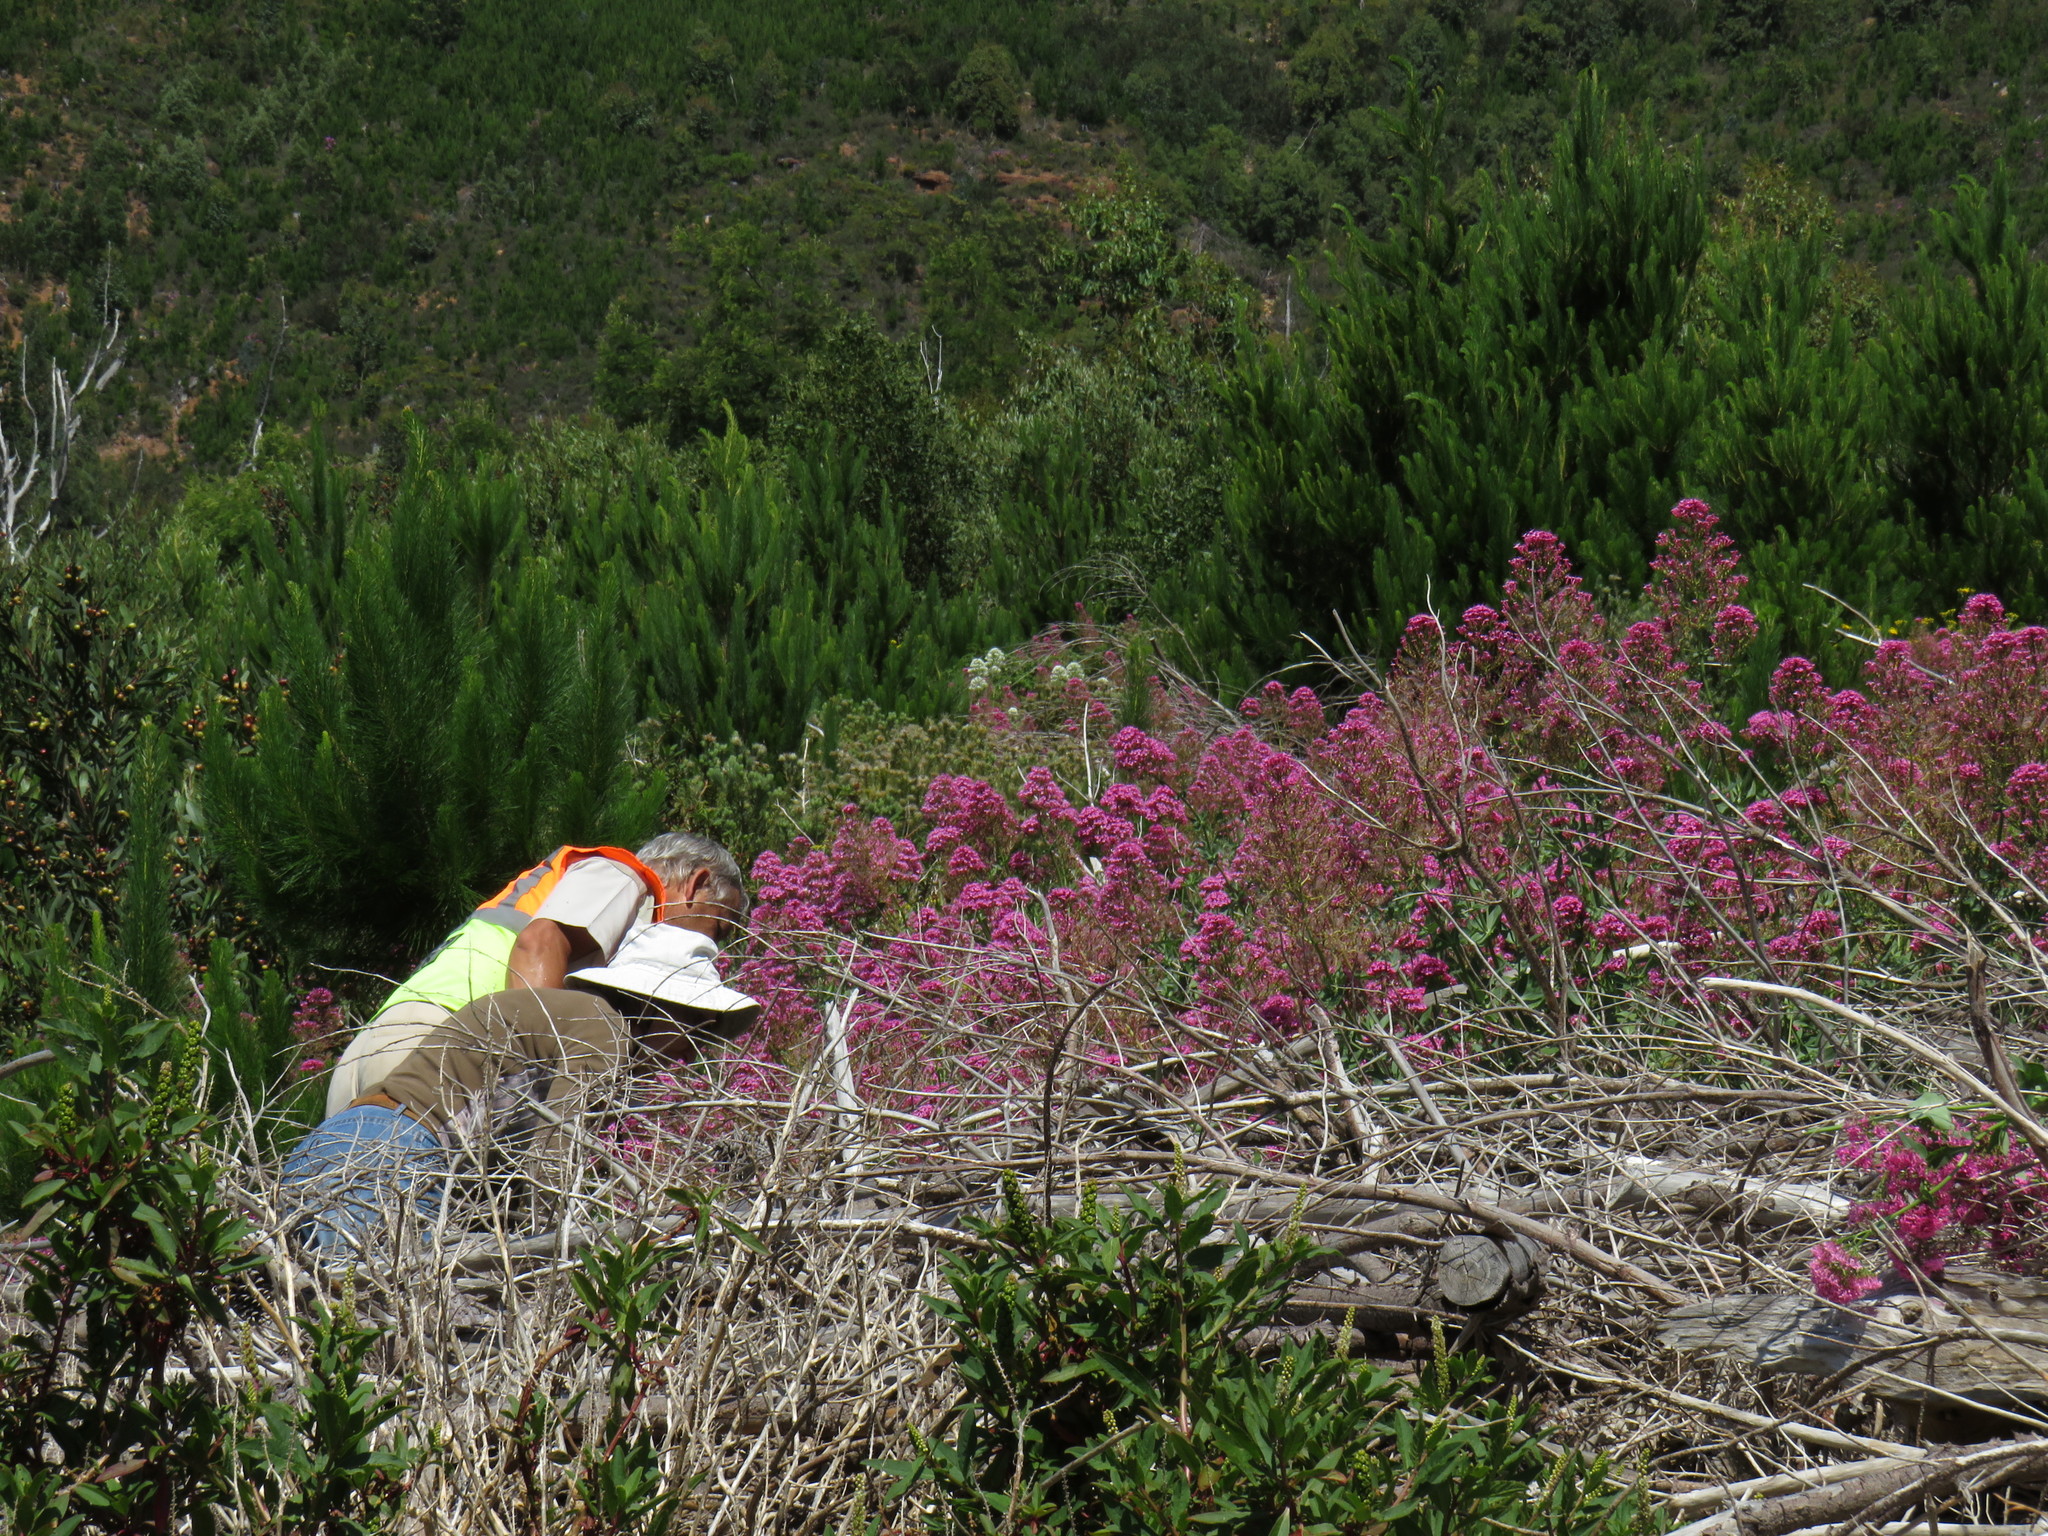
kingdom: Plantae
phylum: Tracheophyta
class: Magnoliopsida
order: Caryophyllales
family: Phytolaccaceae
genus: Phytolacca
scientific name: Phytolacca icosandra
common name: Button pokeweed
